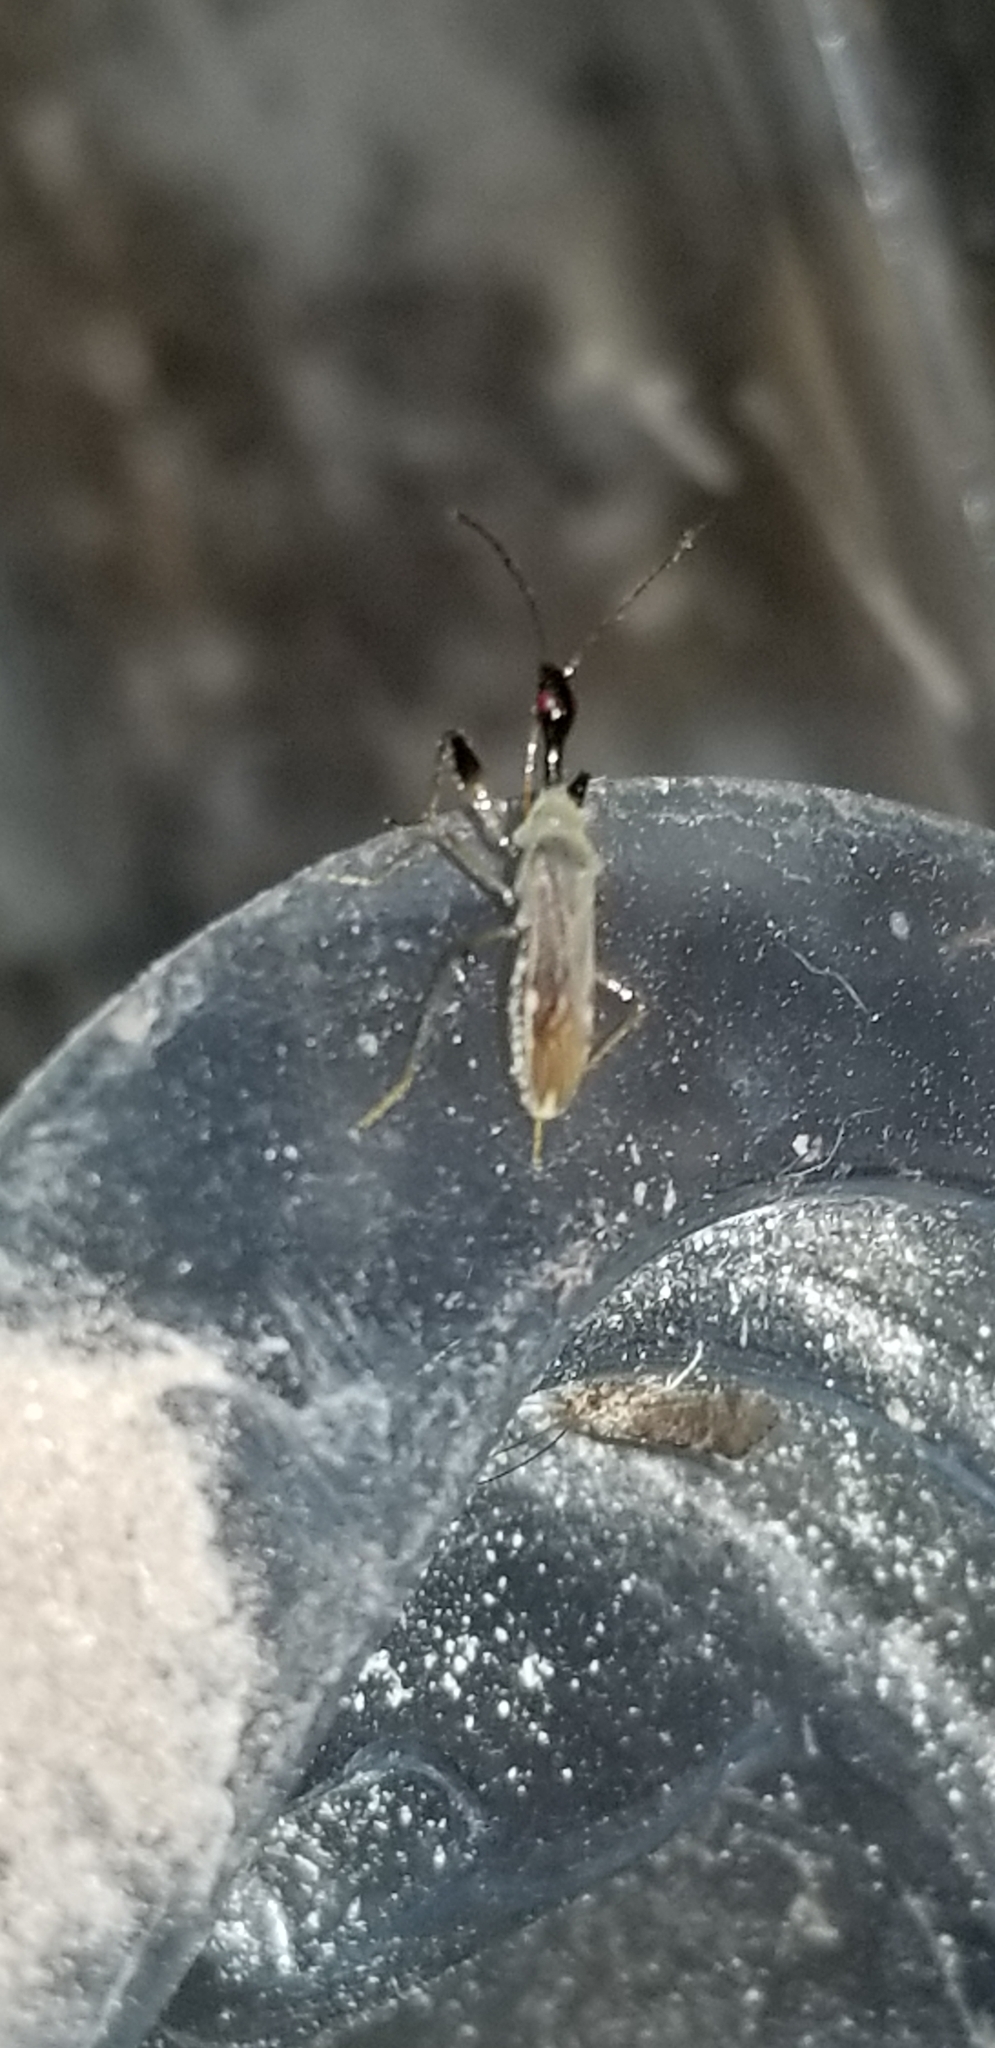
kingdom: Animalia
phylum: Arthropoda
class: Insecta
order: Hemiptera
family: Rhyparochromidae
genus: Myodocha
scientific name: Myodocha serripes
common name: Long-necked seed bug
